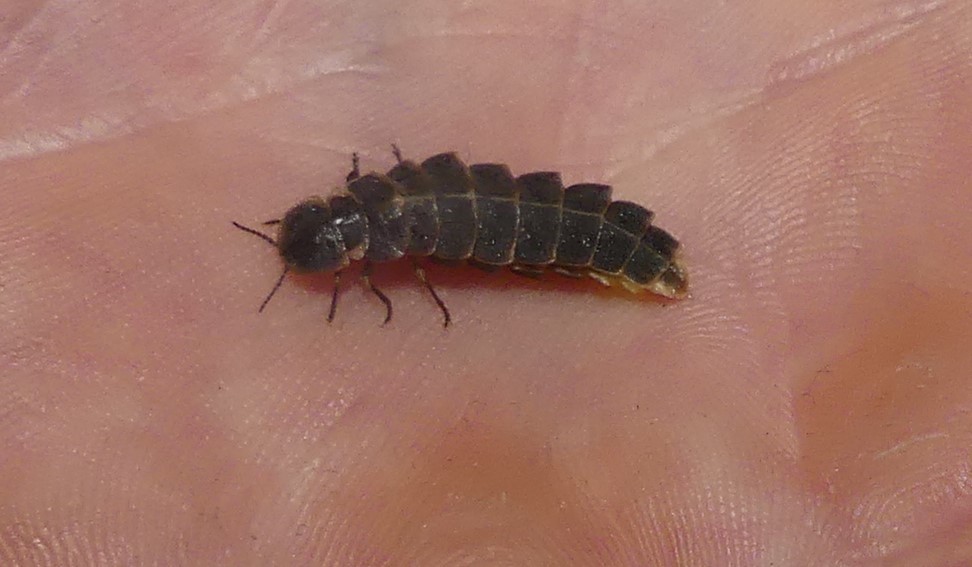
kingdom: Animalia
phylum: Arthropoda
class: Insecta
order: Coleoptera
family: Lampyridae
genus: Lampyris
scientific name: Lampyris noctiluca
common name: Glow-worm
